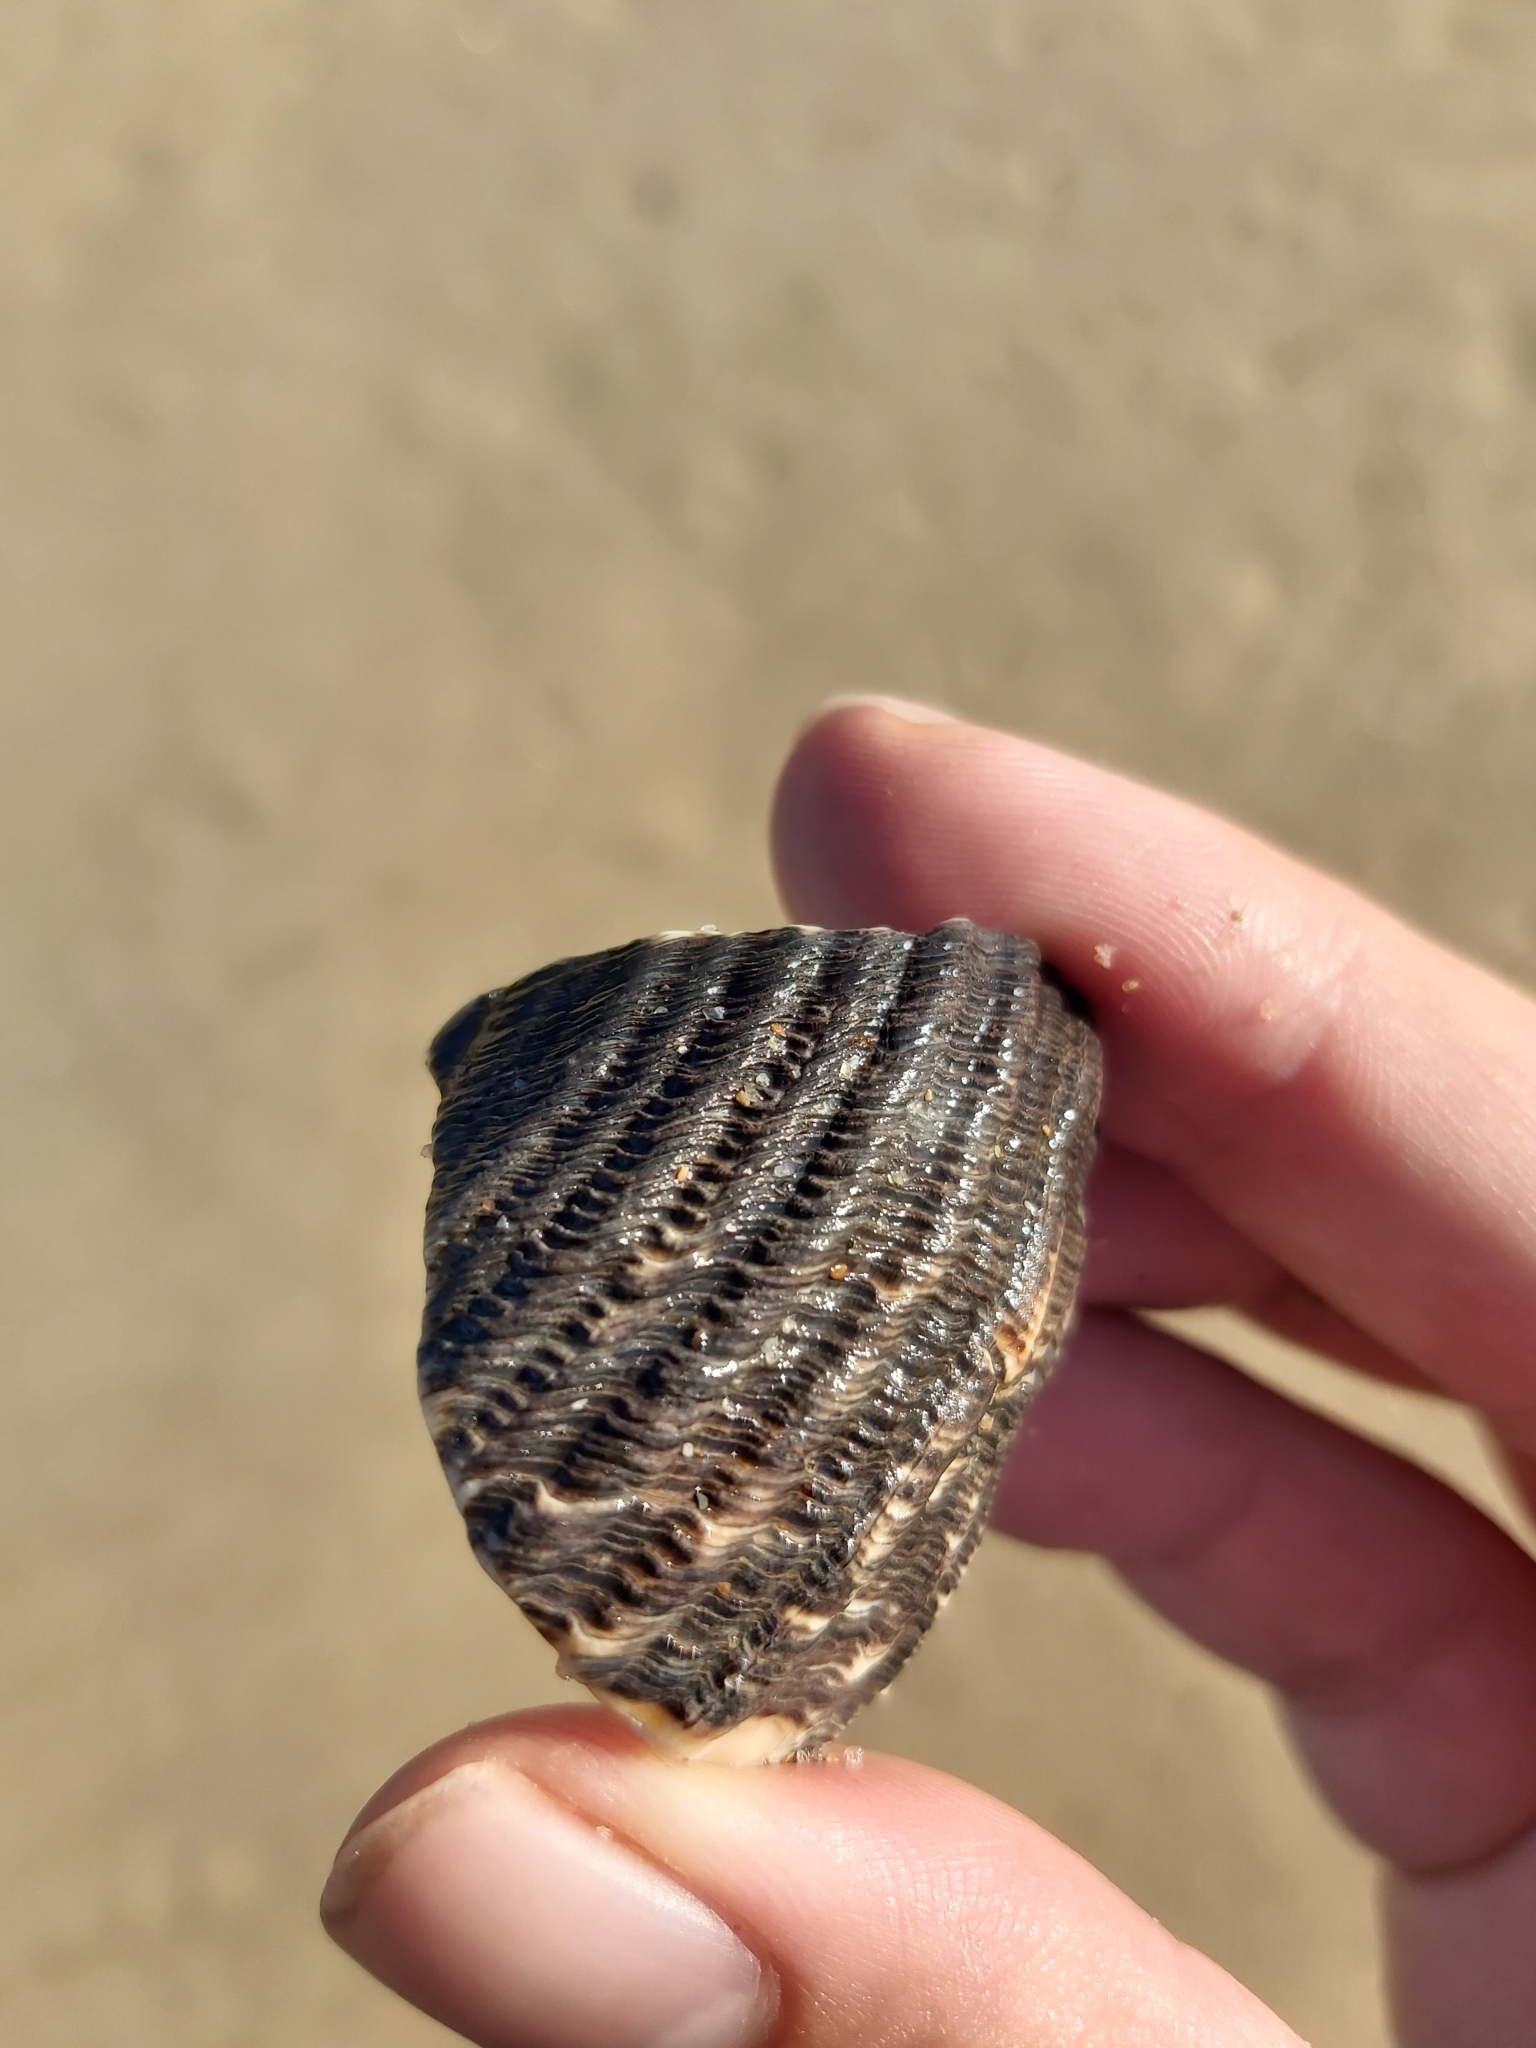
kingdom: Animalia
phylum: Mollusca
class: Gastropoda
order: Trochida
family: Turbinidae
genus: Lunella
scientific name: Lunella torquata
